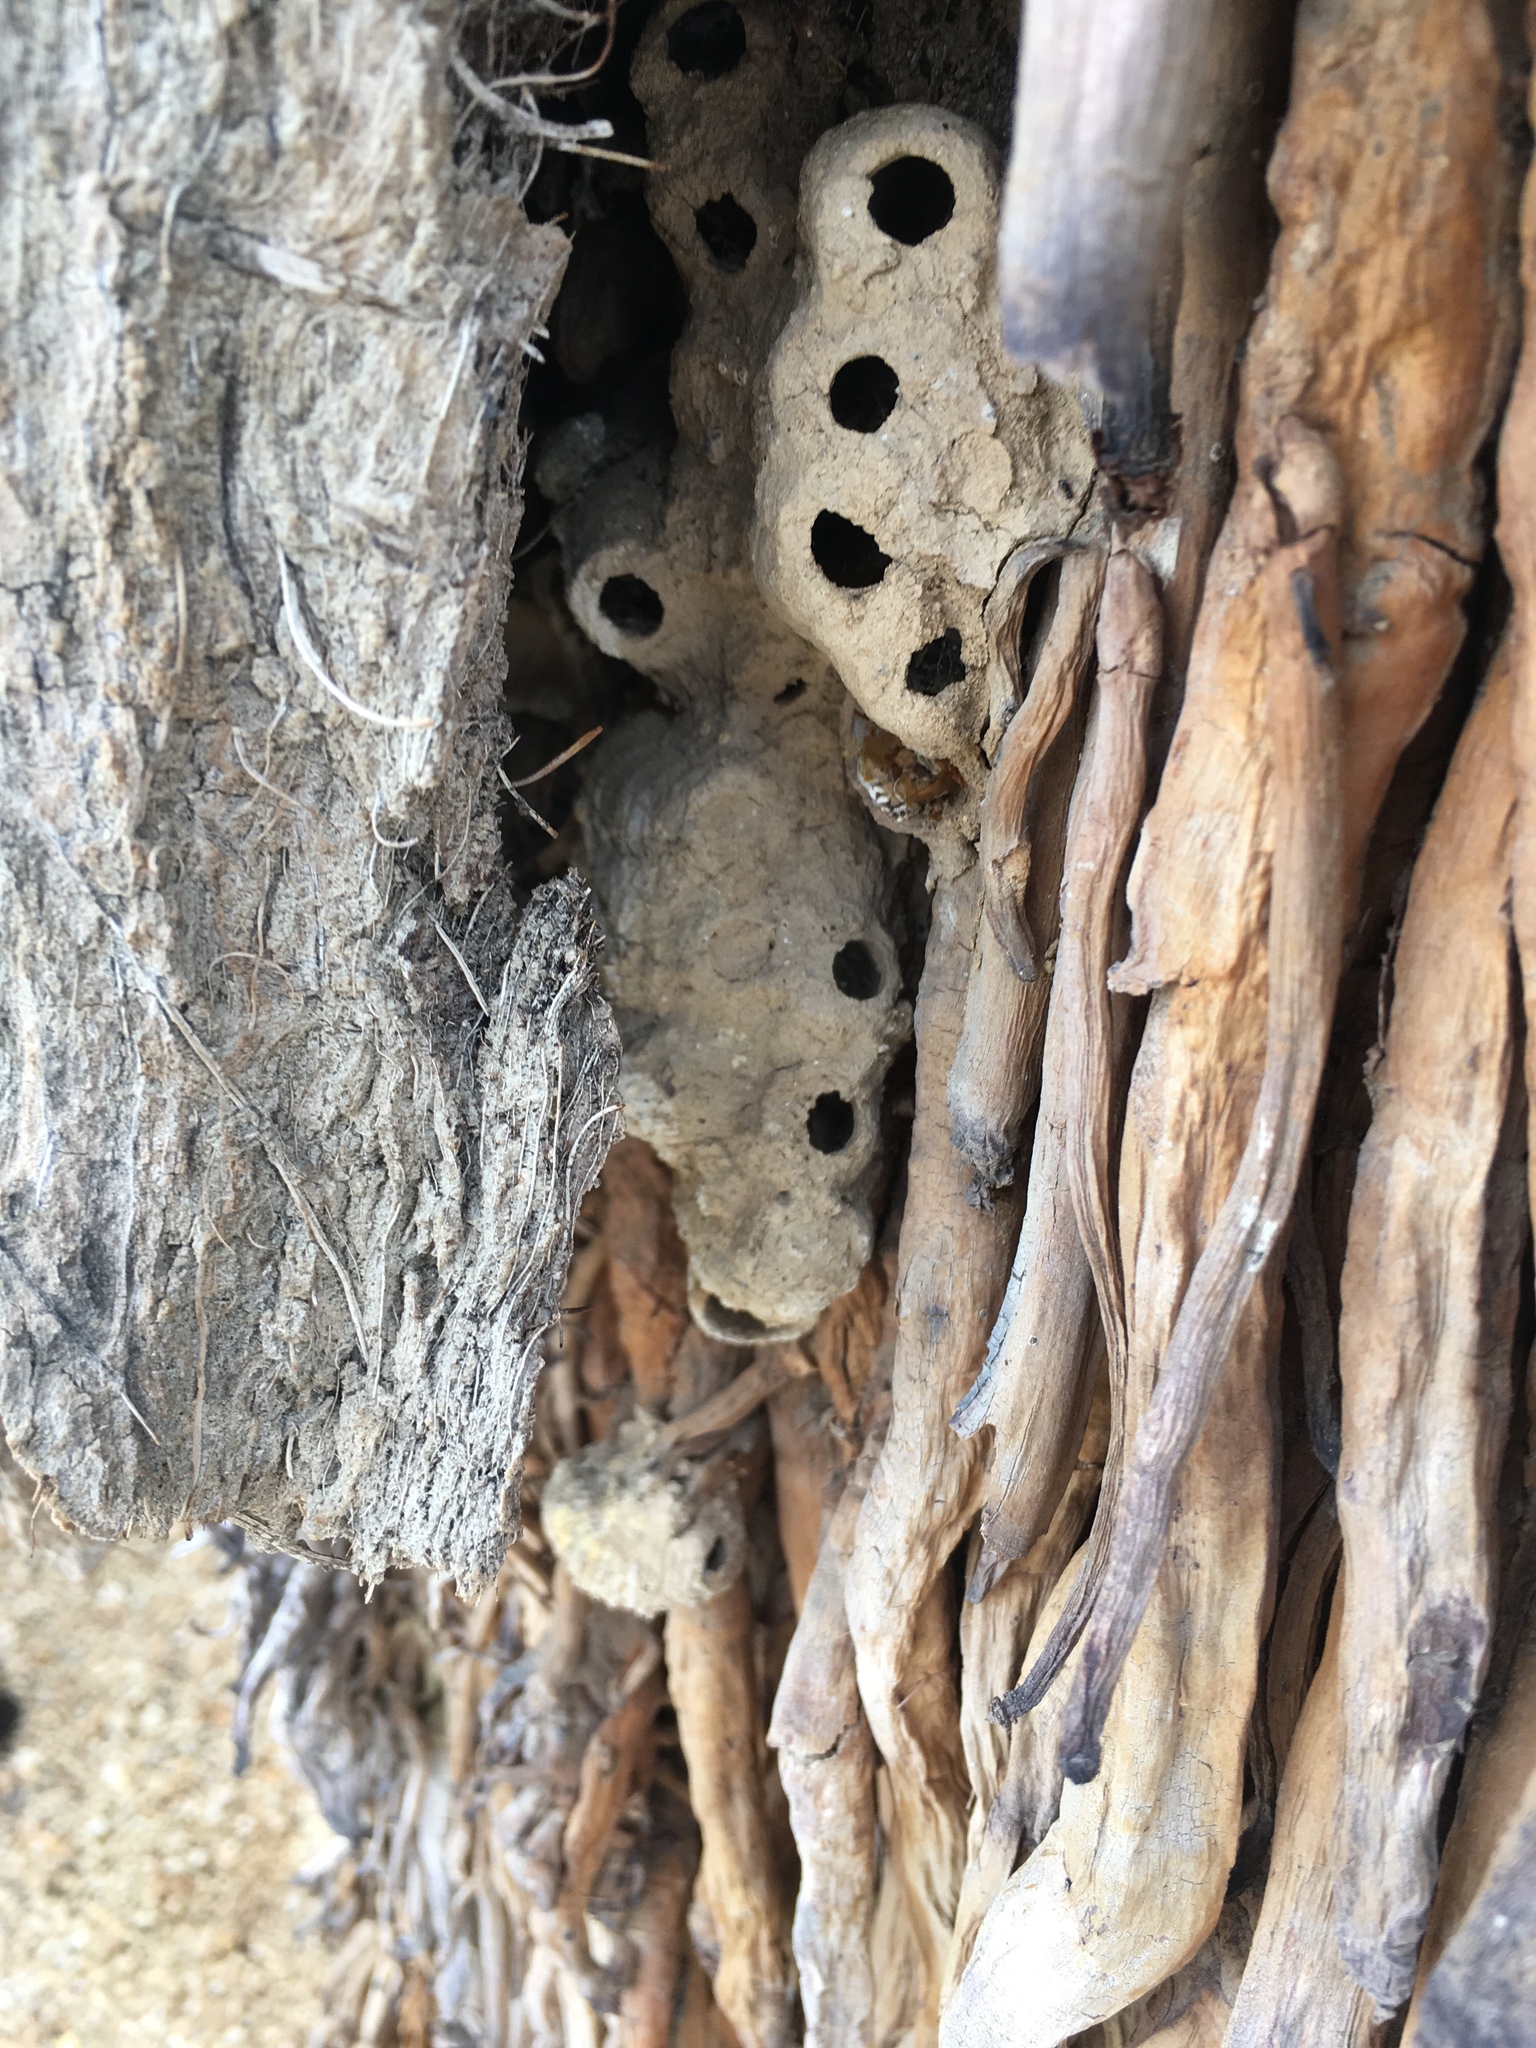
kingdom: Animalia
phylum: Arthropoda
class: Insecta
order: Hymenoptera
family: Sphecidae
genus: Sceliphron
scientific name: Sceliphron caementarium
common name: Mud dauber
